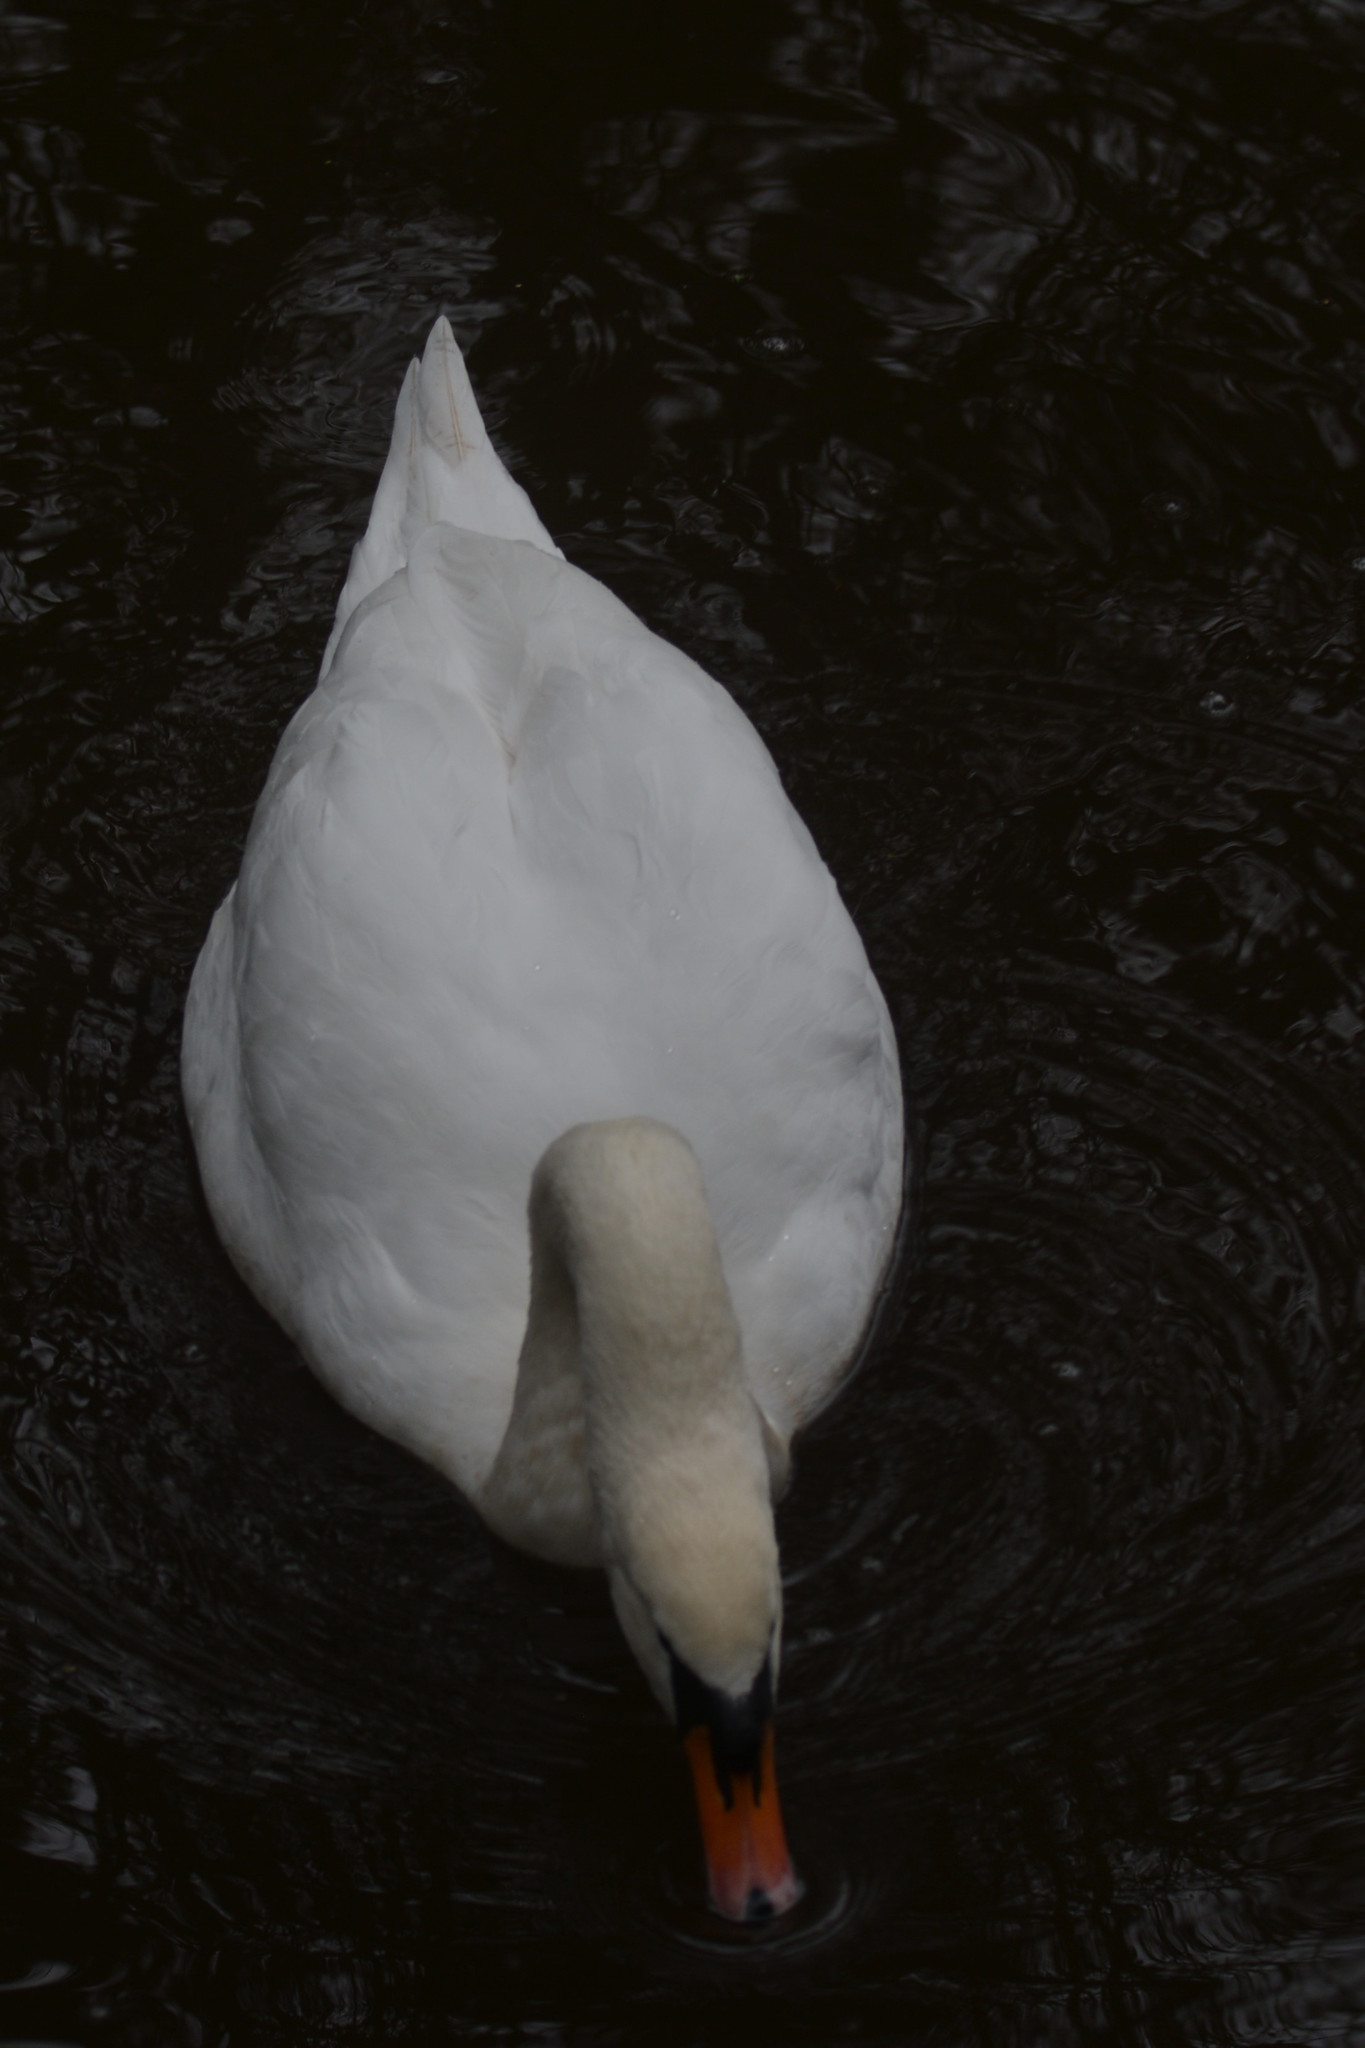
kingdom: Animalia
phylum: Chordata
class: Aves
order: Anseriformes
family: Anatidae
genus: Cygnus
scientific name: Cygnus olor
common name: Mute swan
